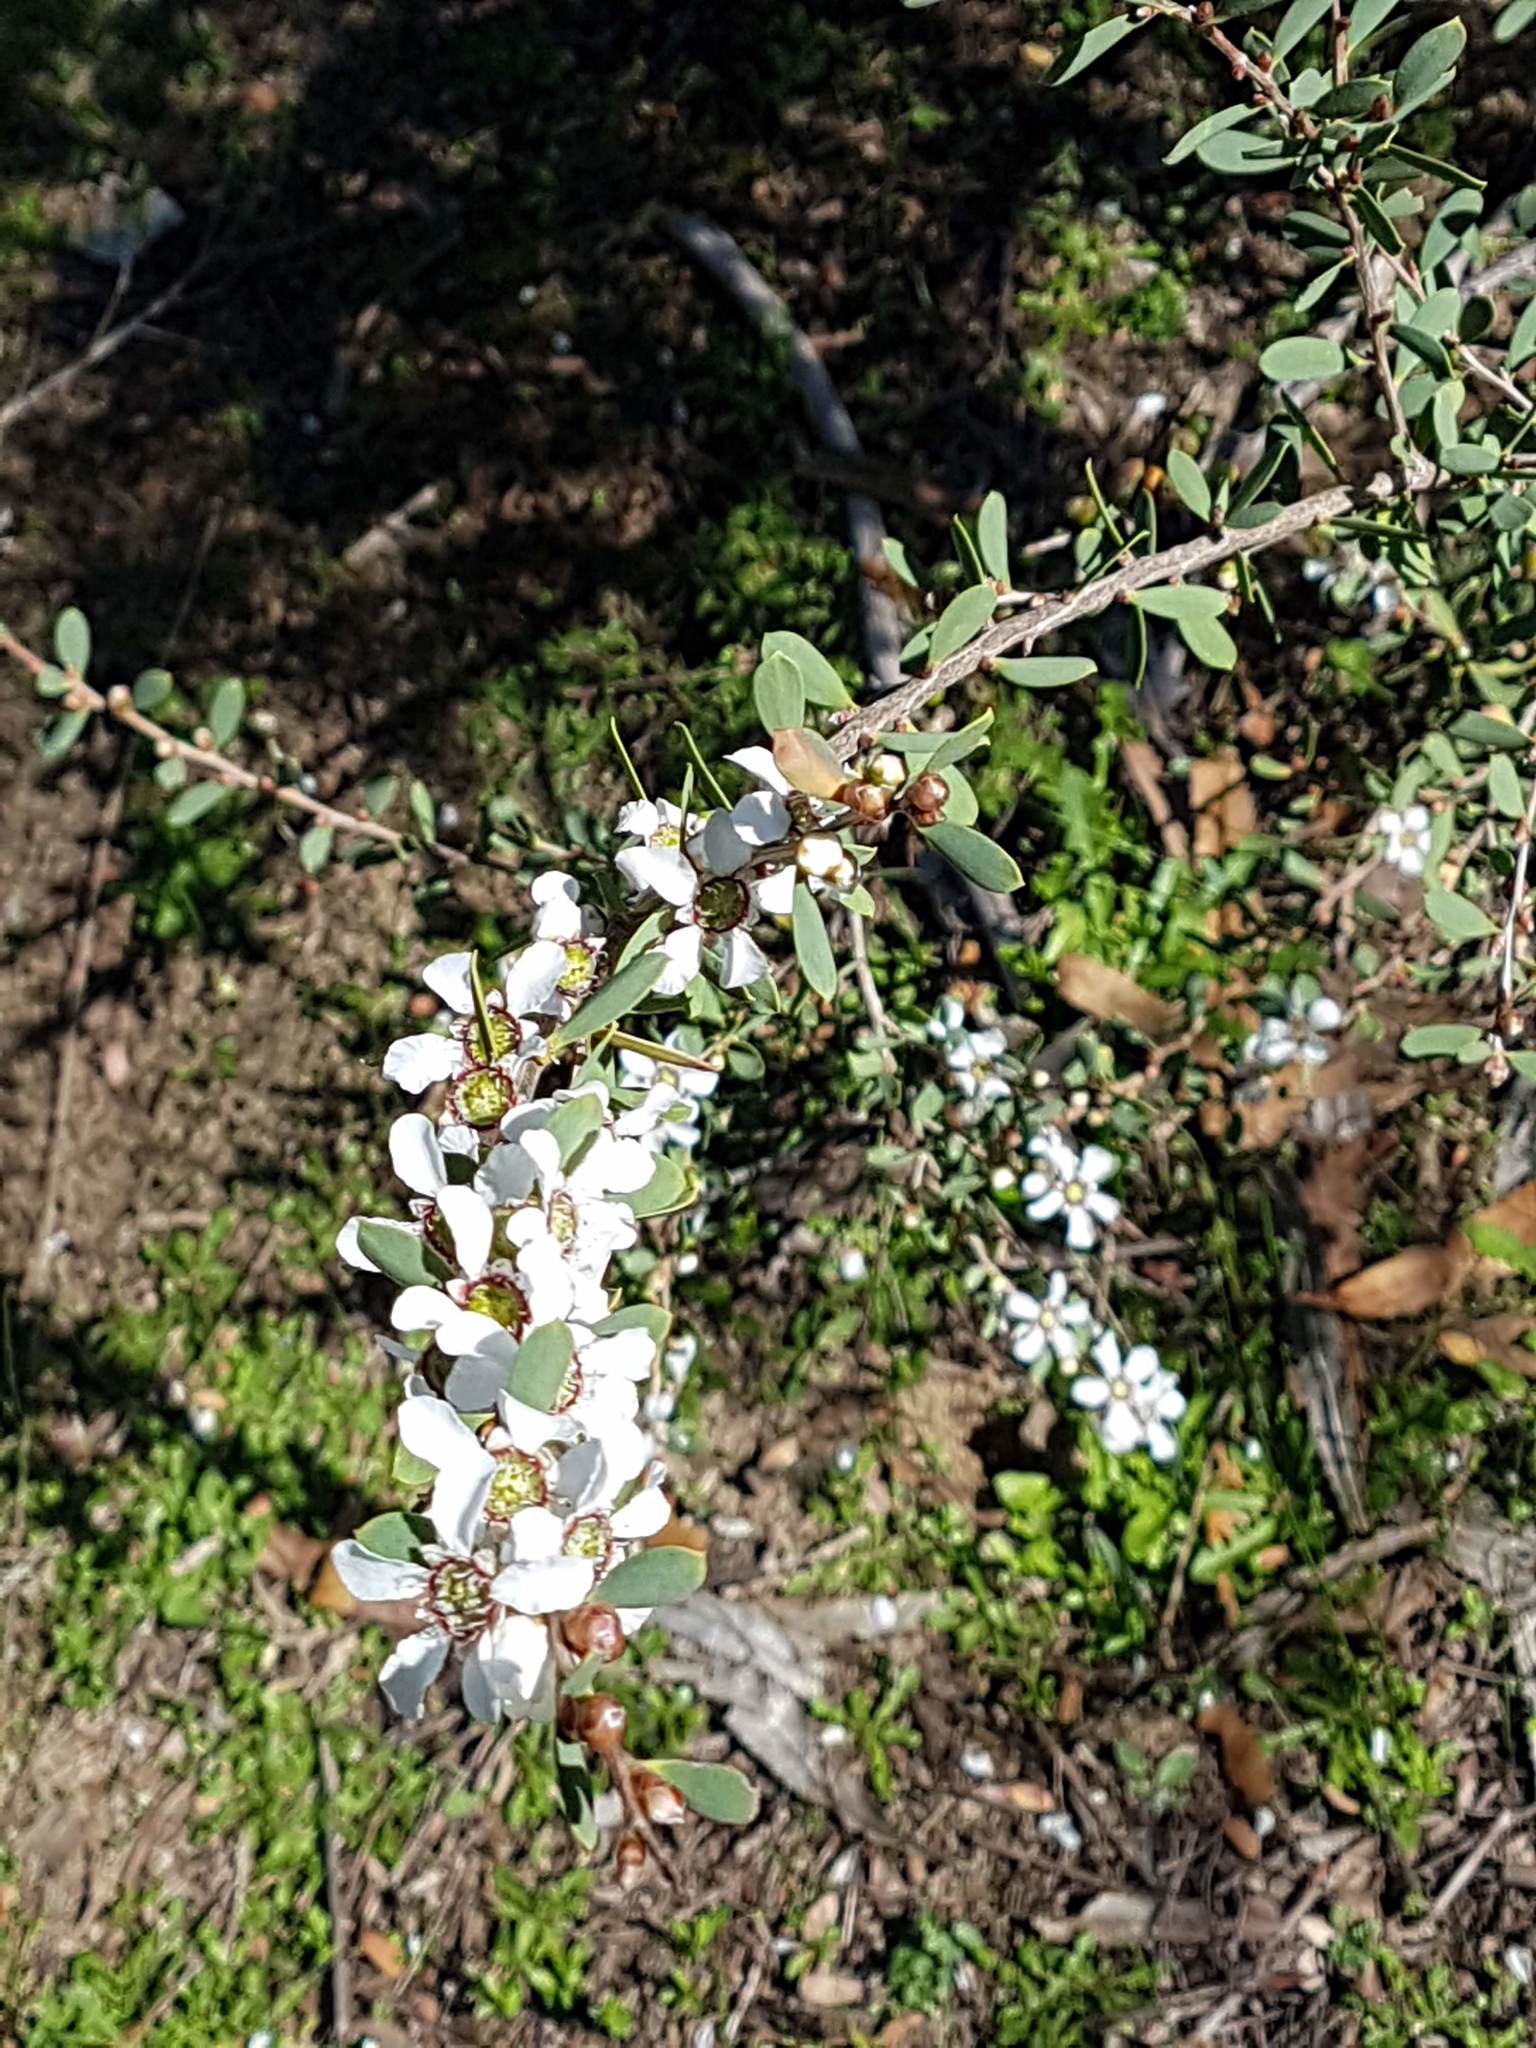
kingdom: Plantae
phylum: Tracheophyta
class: Magnoliopsida
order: Myrtales
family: Myrtaceae
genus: Leptospermum
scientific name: Leptospermum laevigatum
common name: Australian teatree
